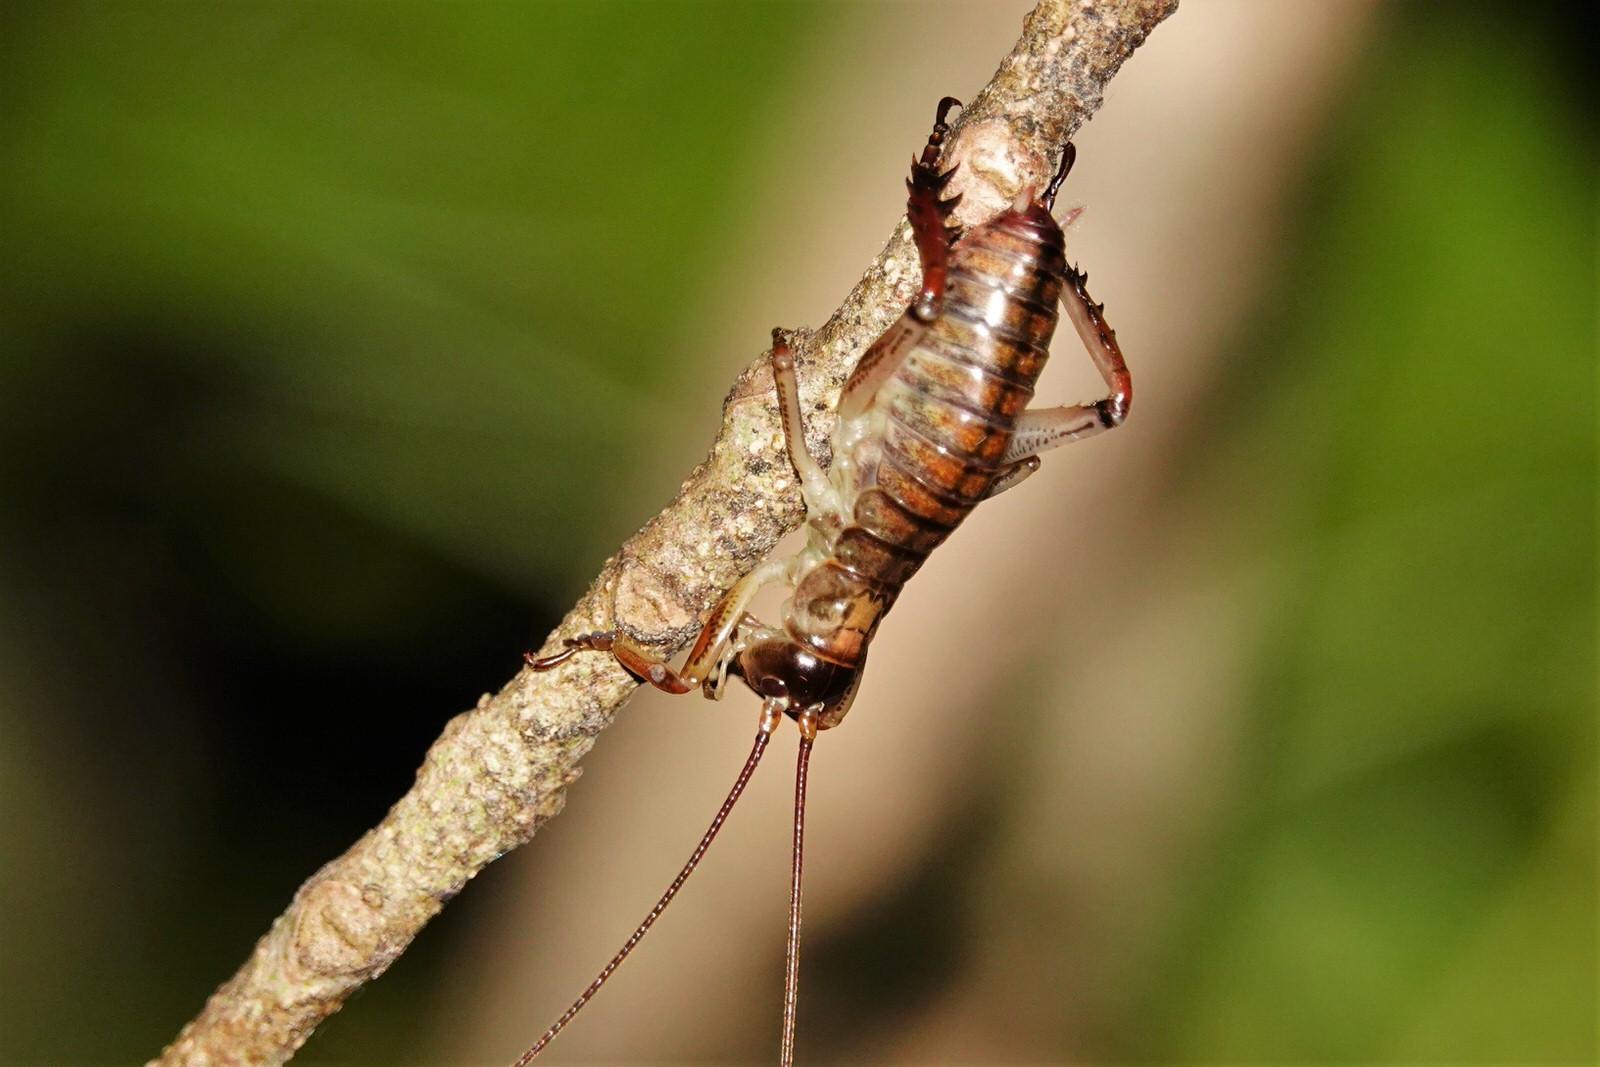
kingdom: Animalia
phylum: Arthropoda
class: Insecta
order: Orthoptera
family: Anostostomatidae
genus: Hemideina
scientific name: Hemideina thoracica
